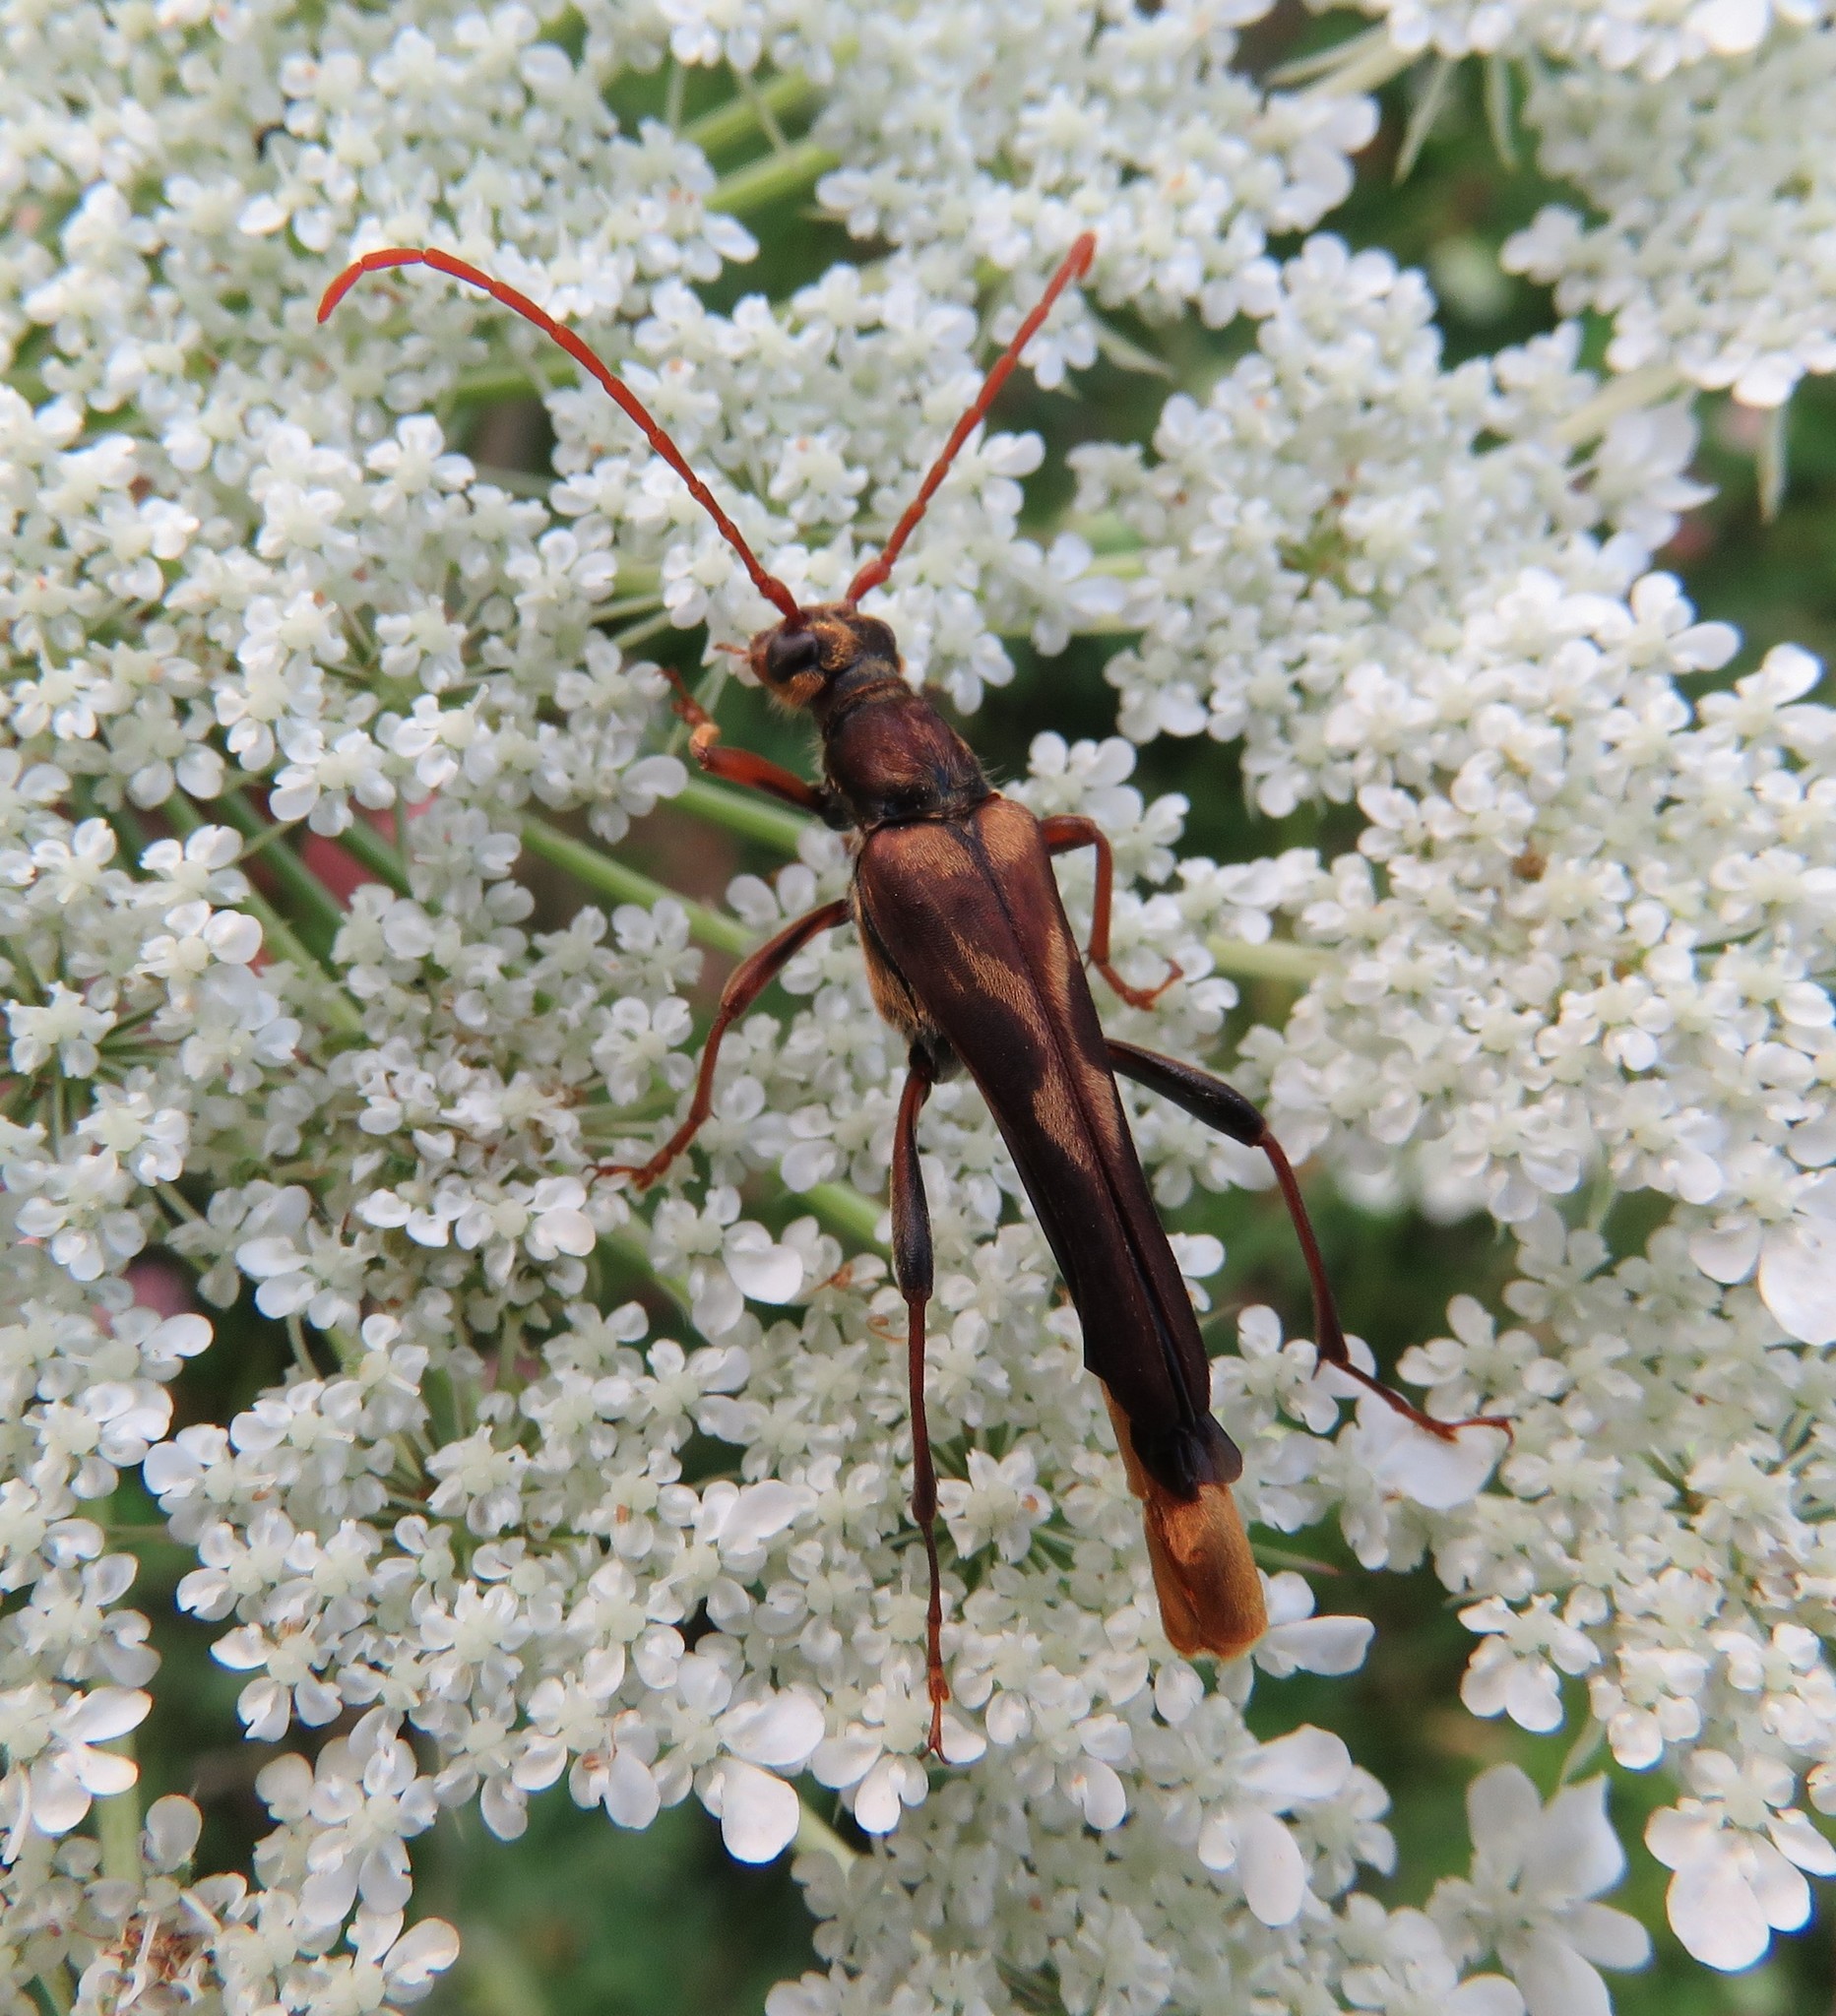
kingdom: Animalia
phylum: Arthropoda
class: Insecta
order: Coleoptera
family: Cerambycidae
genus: Bellamira
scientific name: Bellamira scalaris
